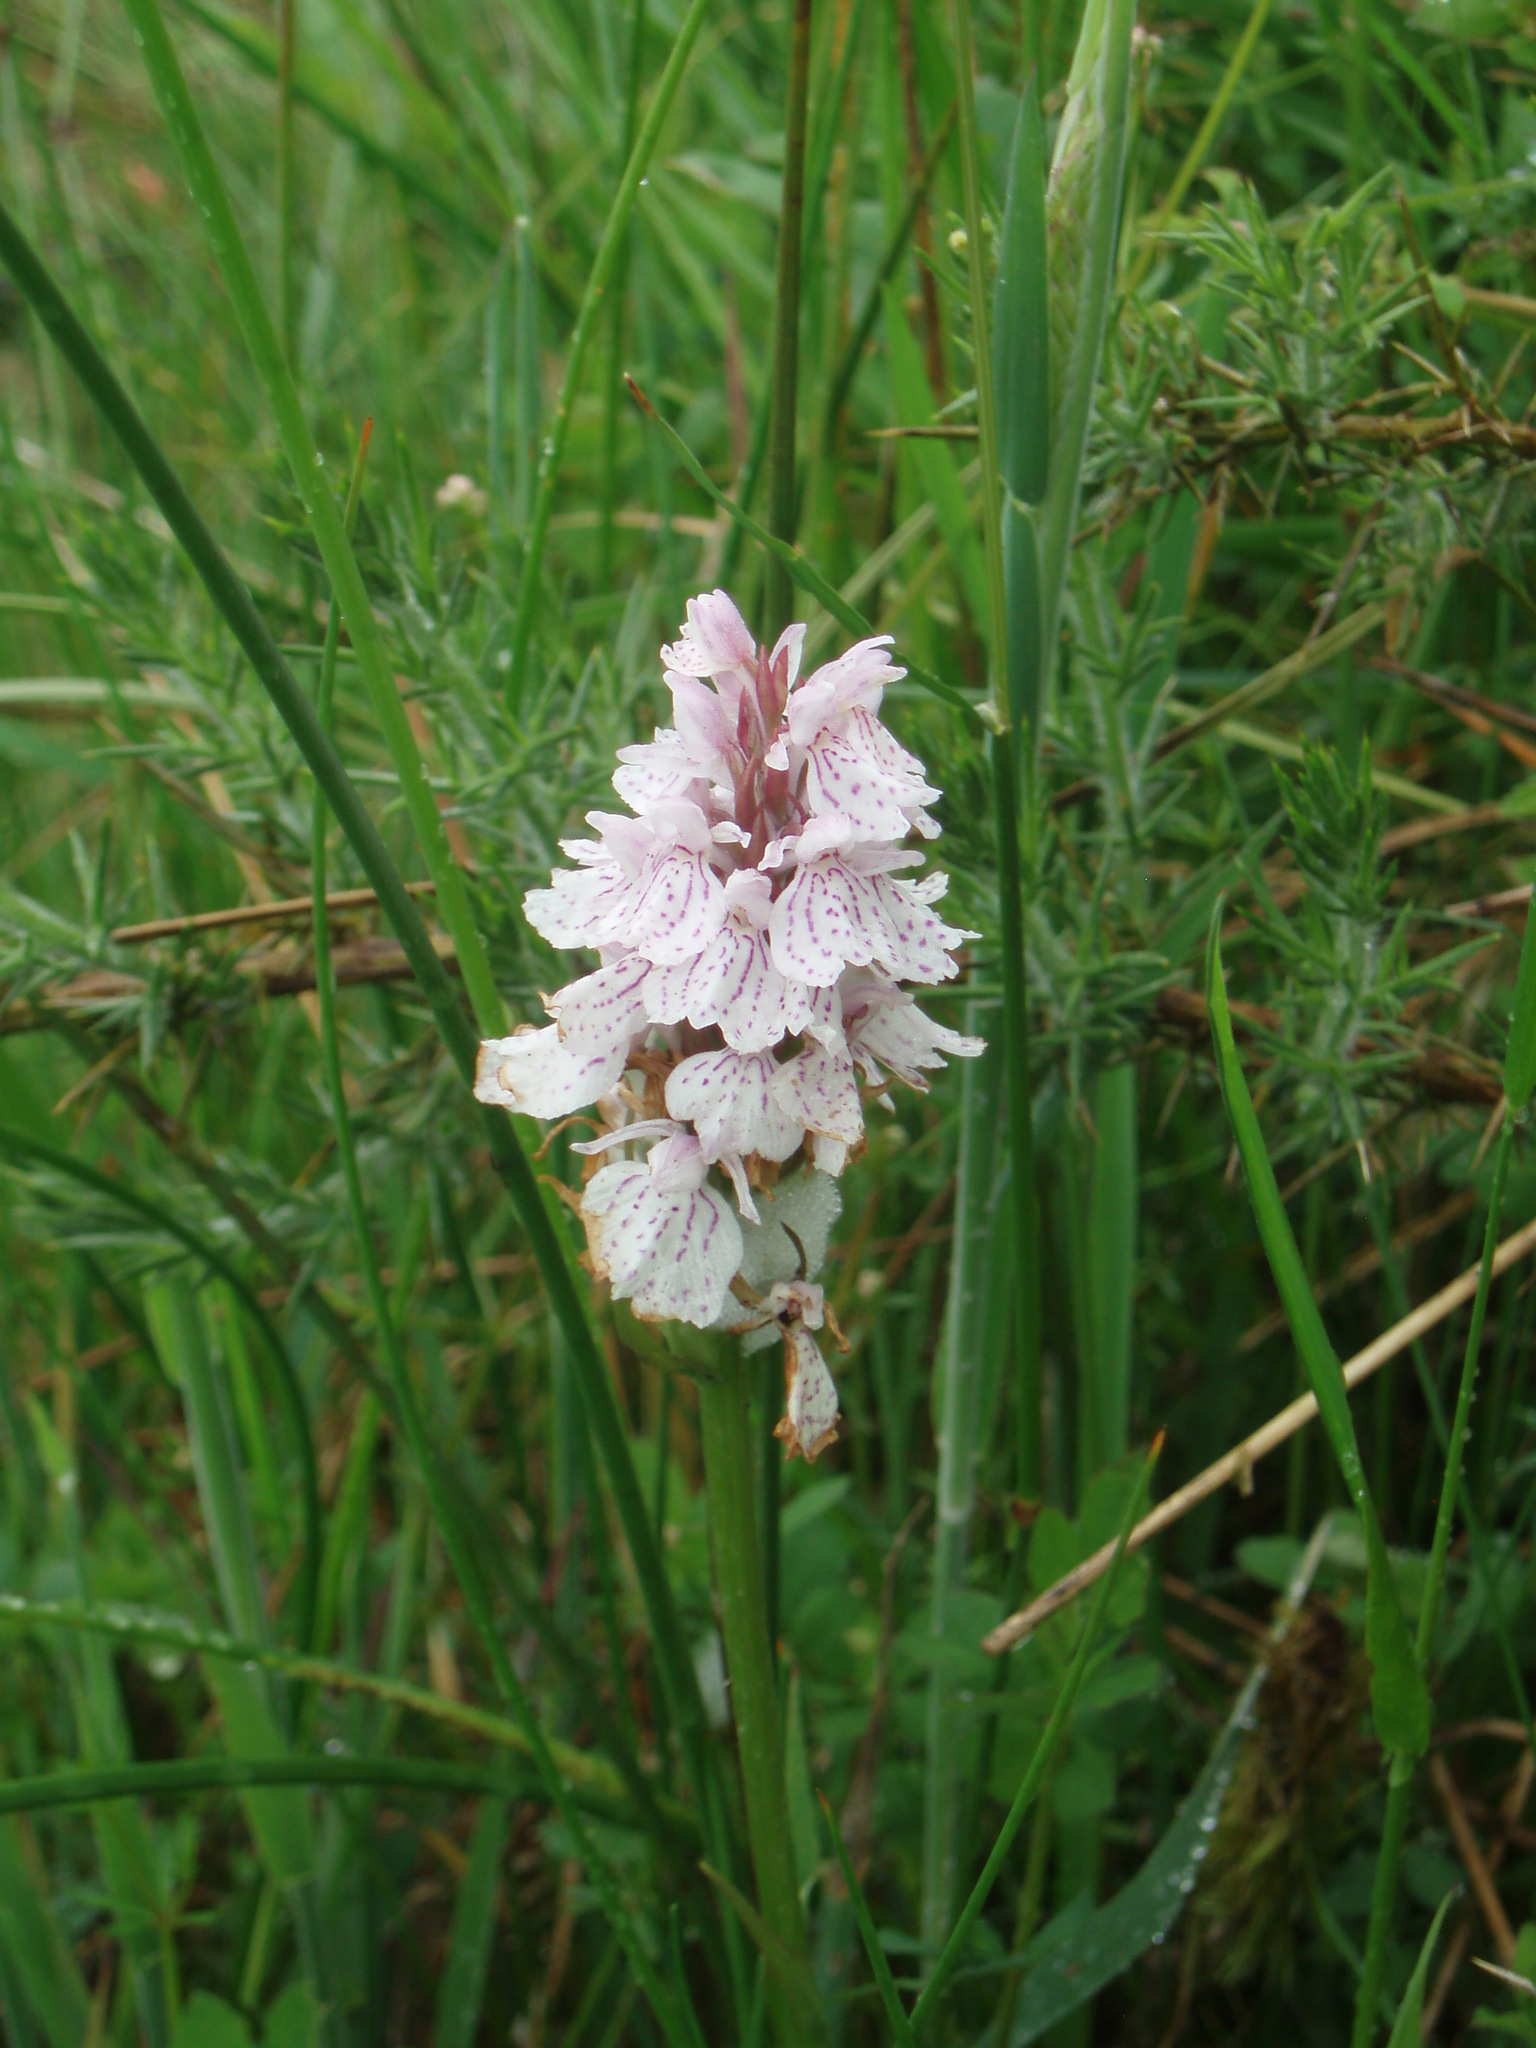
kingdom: Plantae
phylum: Tracheophyta
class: Liliopsida
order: Asparagales
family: Orchidaceae
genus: Dactylorhiza
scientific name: Dactylorhiza maculata
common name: Heath spotted-orchid
